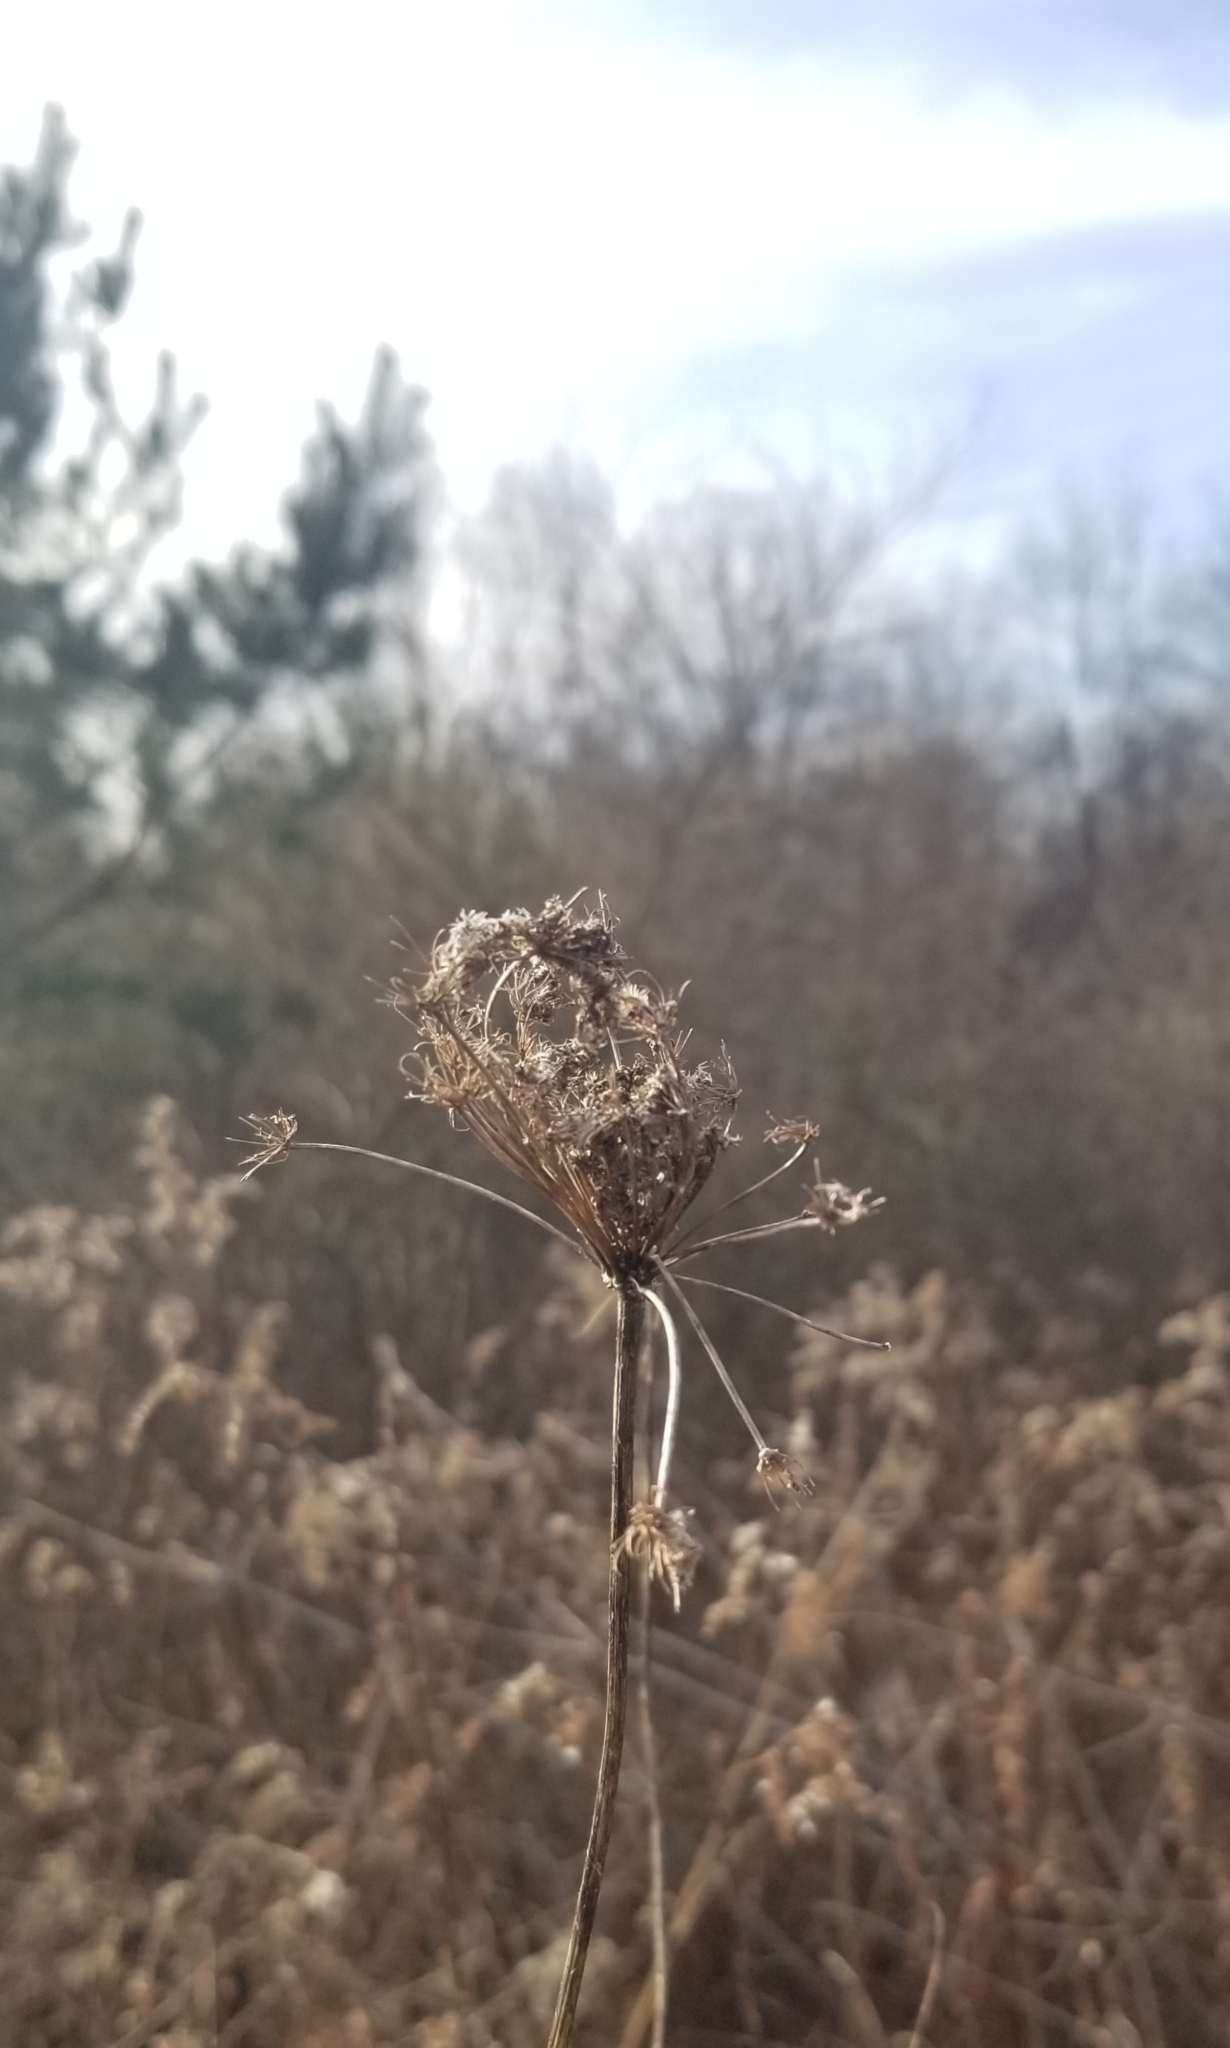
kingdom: Plantae
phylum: Tracheophyta
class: Magnoliopsida
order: Apiales
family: Apiaceae
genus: Daucus
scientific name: Daucus carota
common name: Wild carrot
